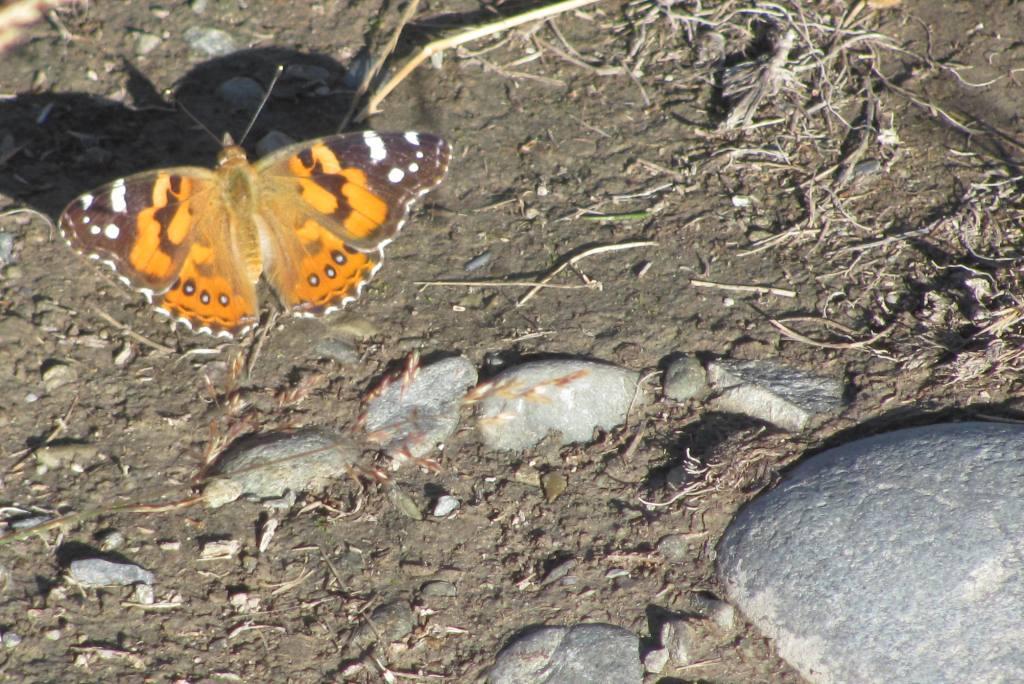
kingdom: Animalia
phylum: Arthropoda
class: Insecta
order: Lepidoptera
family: Nymphalidae
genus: Vanessa
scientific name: Vanessa kershawi
